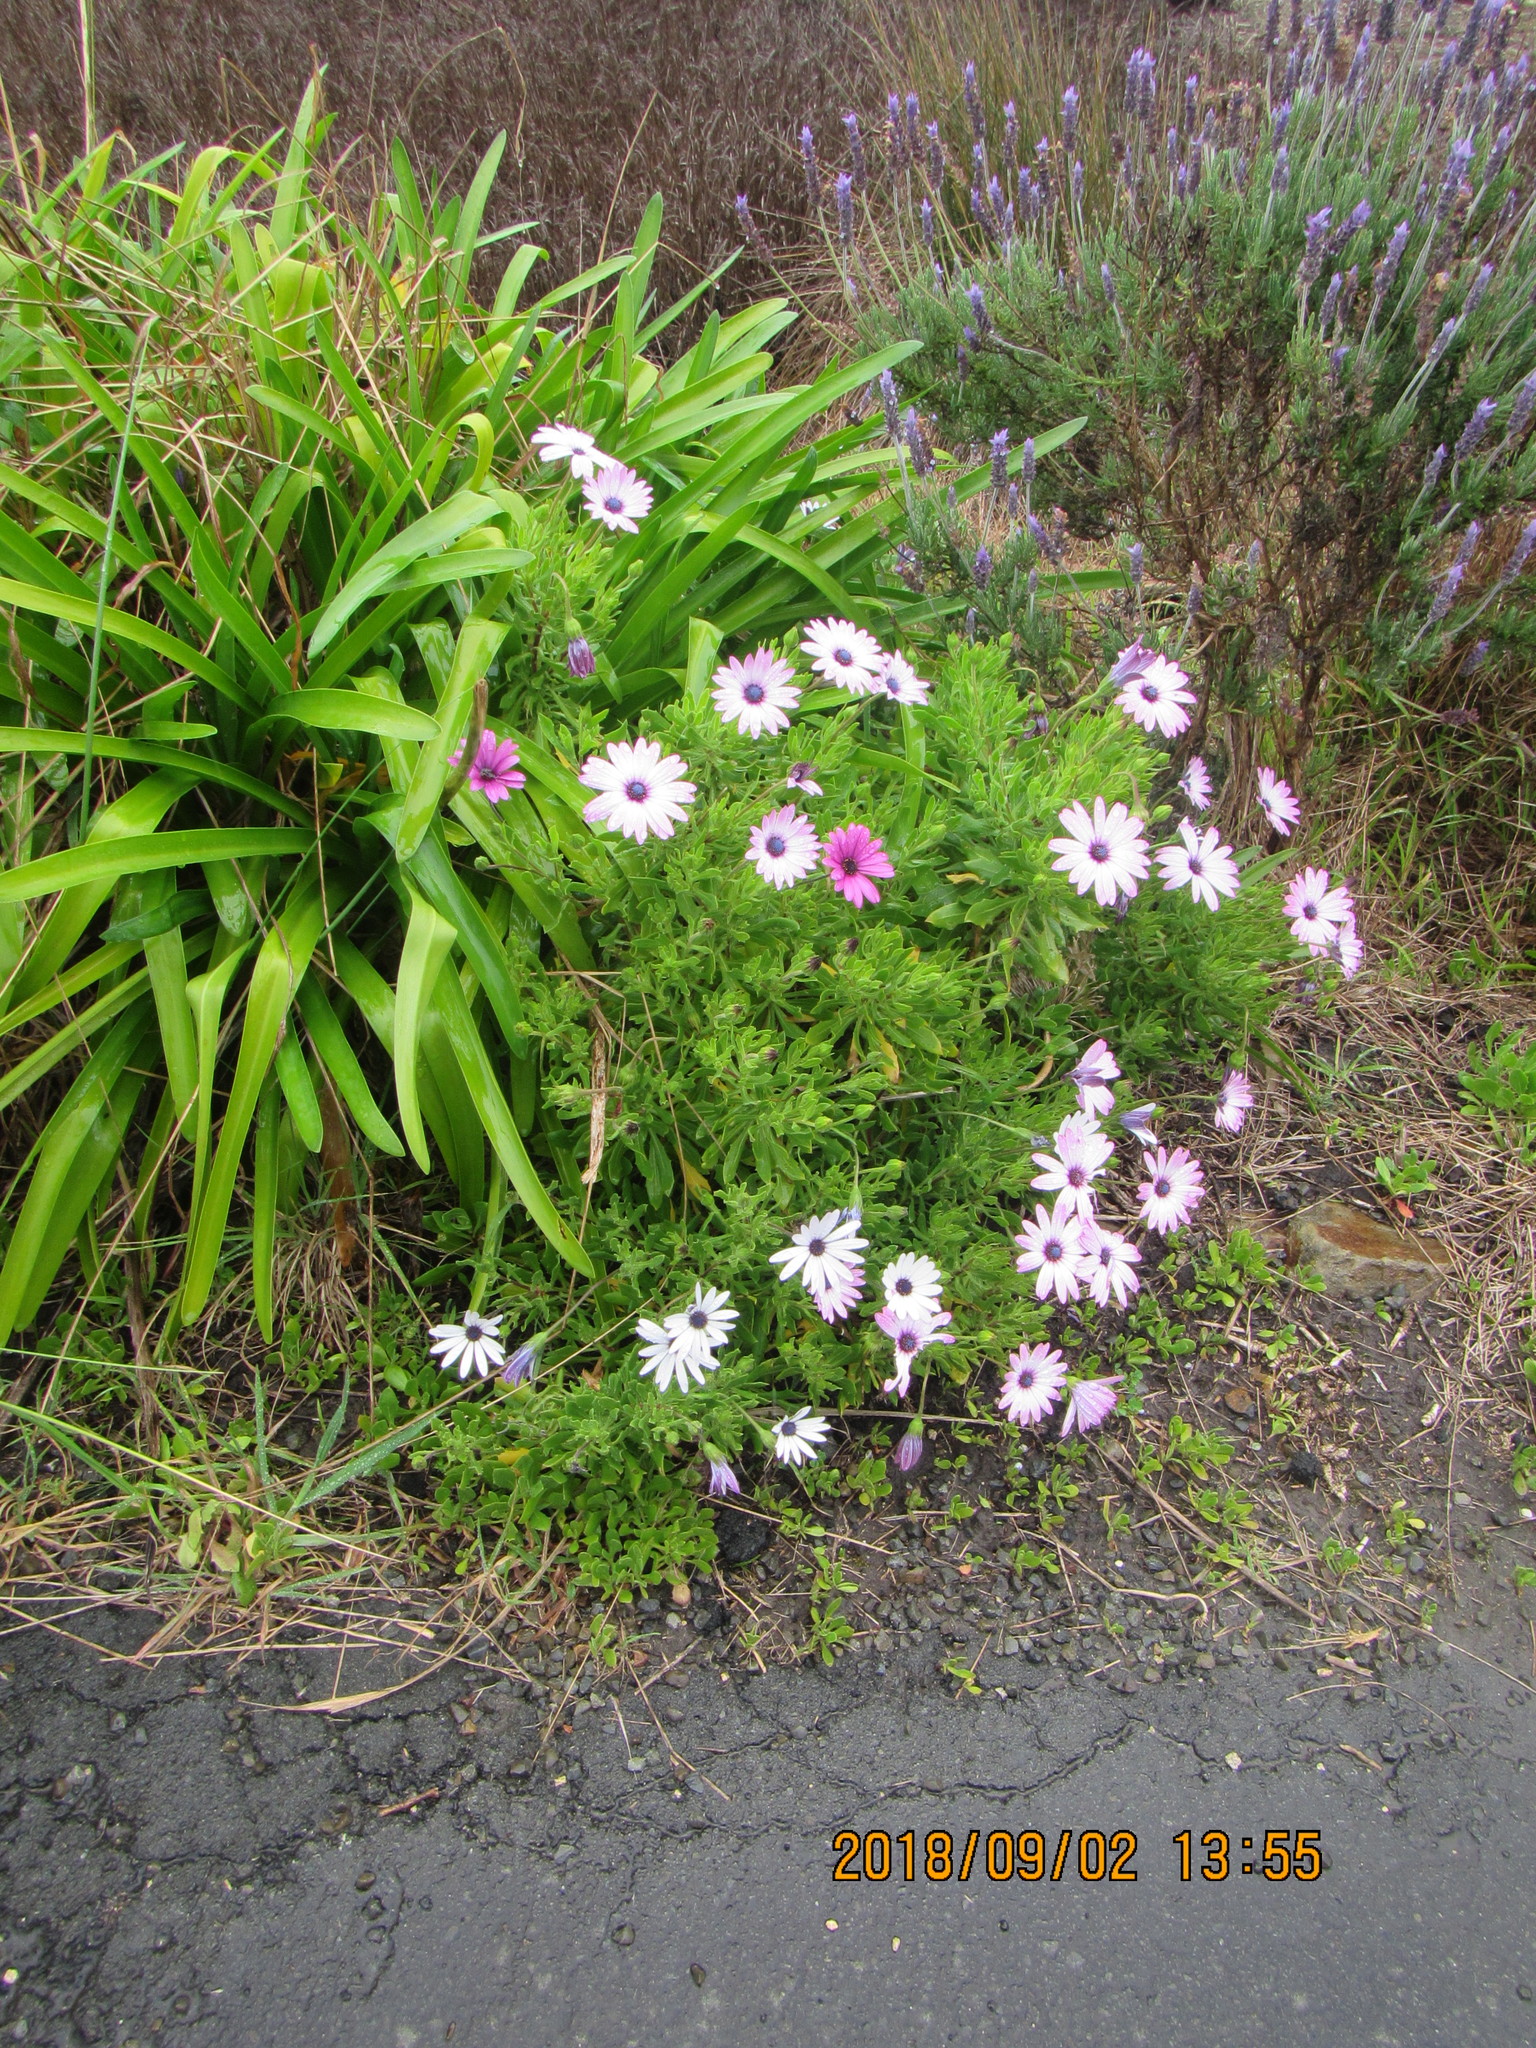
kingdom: Plantae
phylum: Tracheophyta
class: Magnoliopsida
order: Asterales
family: Asteraceae
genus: Dimorphotheca
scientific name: Dimorphotheca fruticosa
